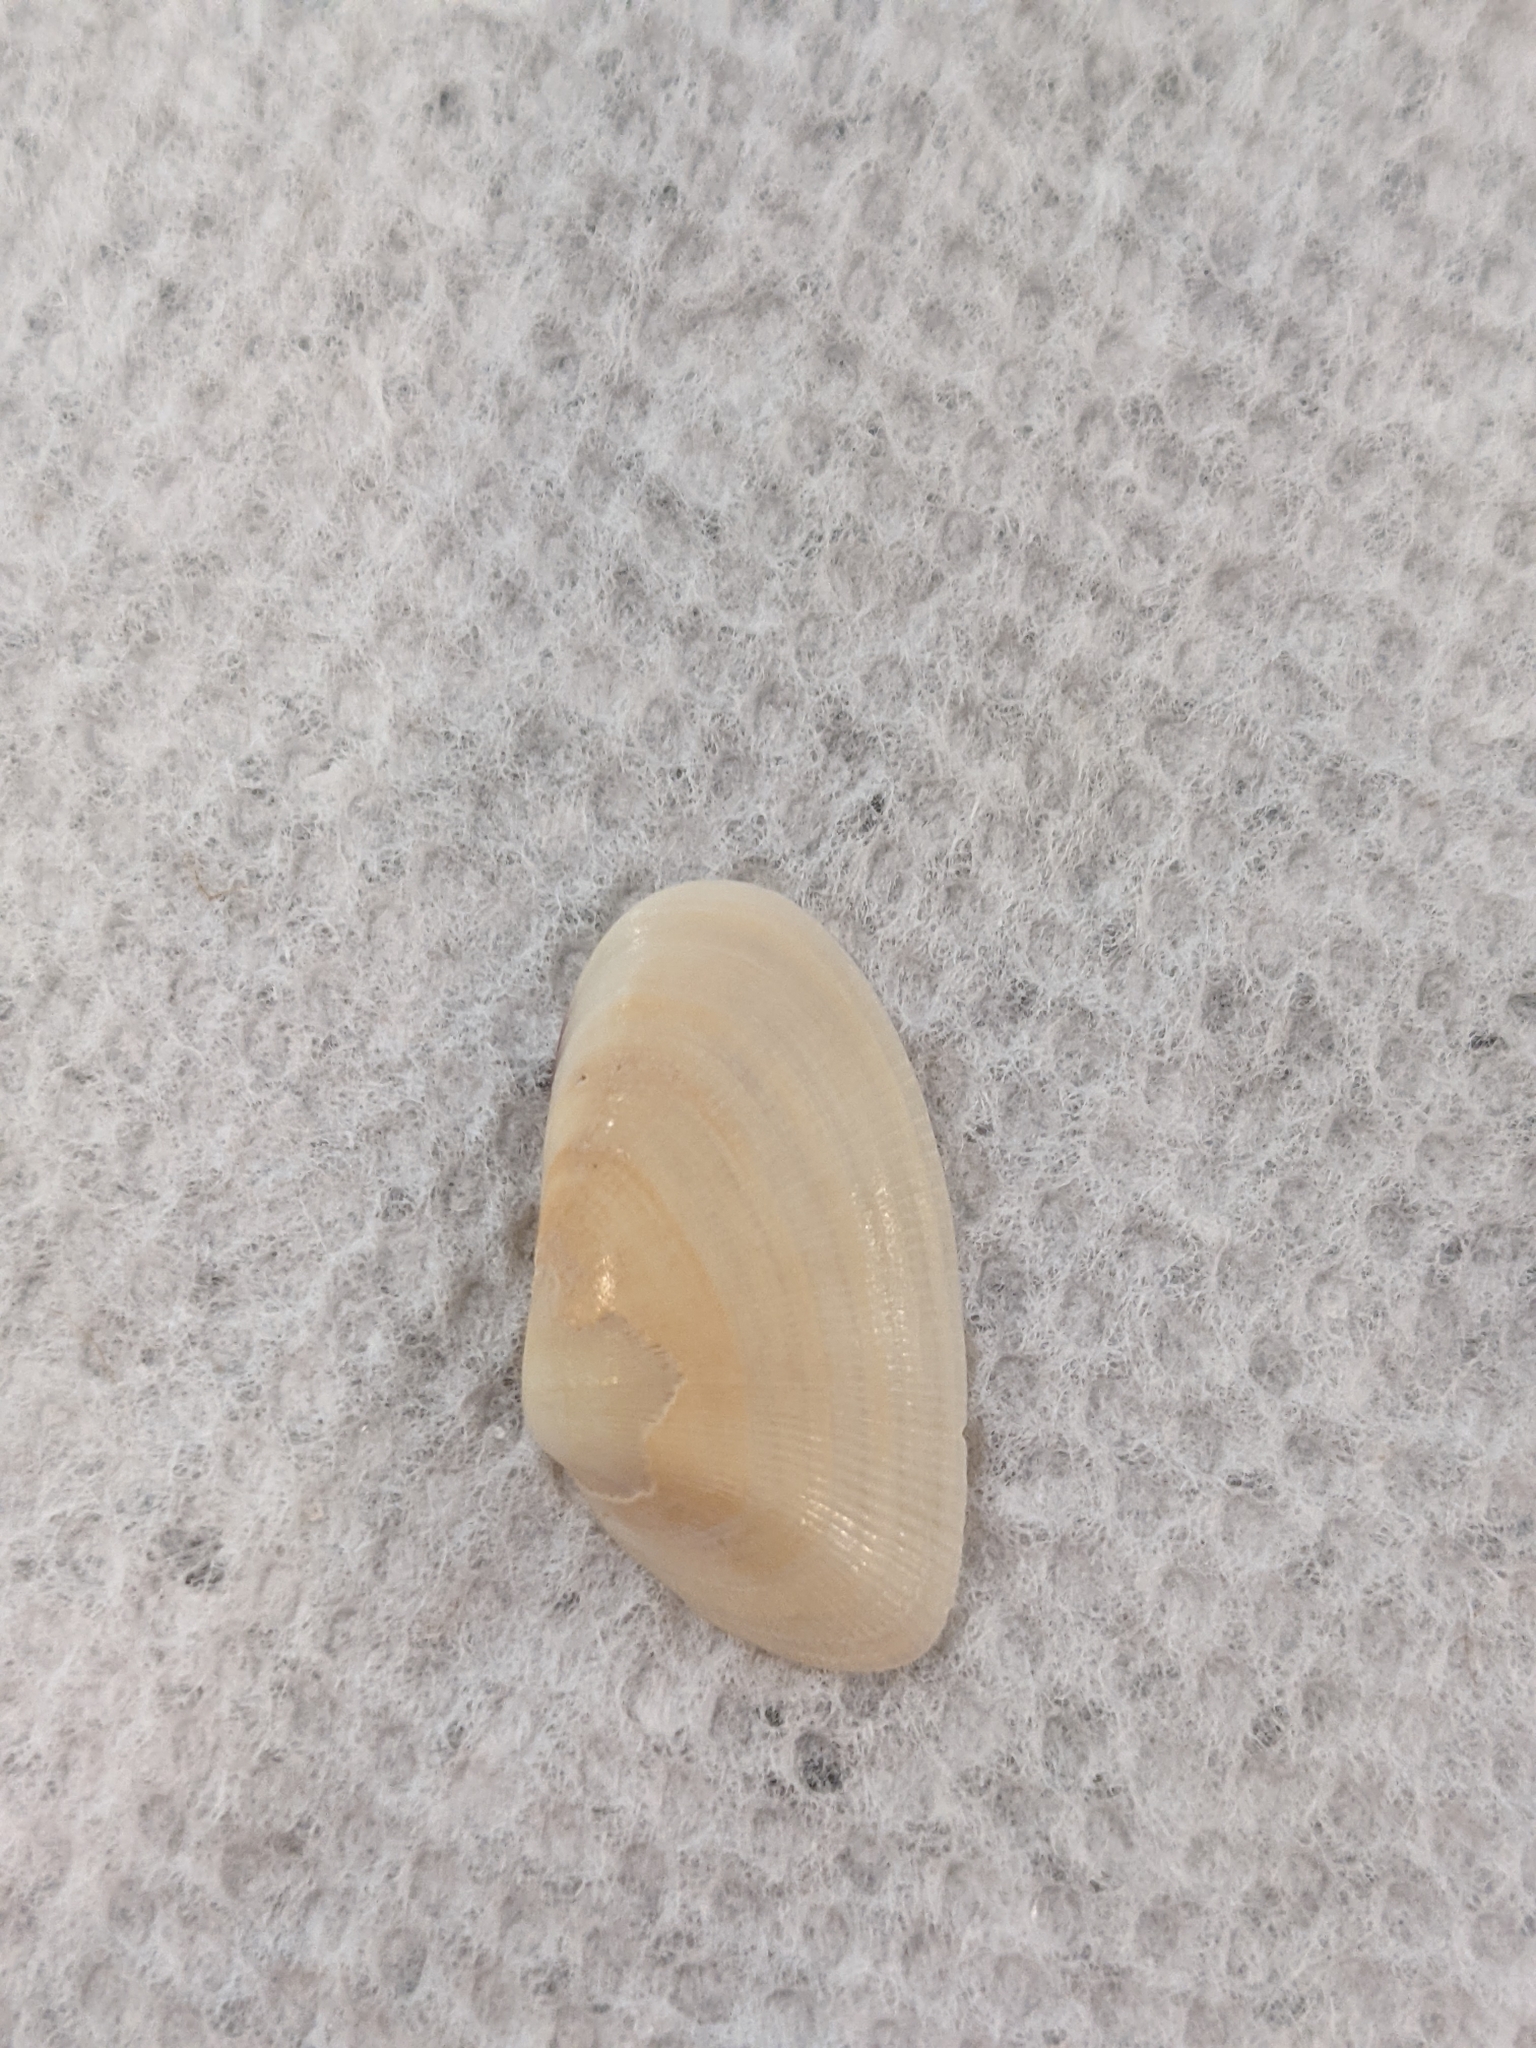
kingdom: Animalia
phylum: Mollusca
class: Bivalvia
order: Cardiida
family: Donacidae
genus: Donax
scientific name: Donax variabilis
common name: Butterfly shell
